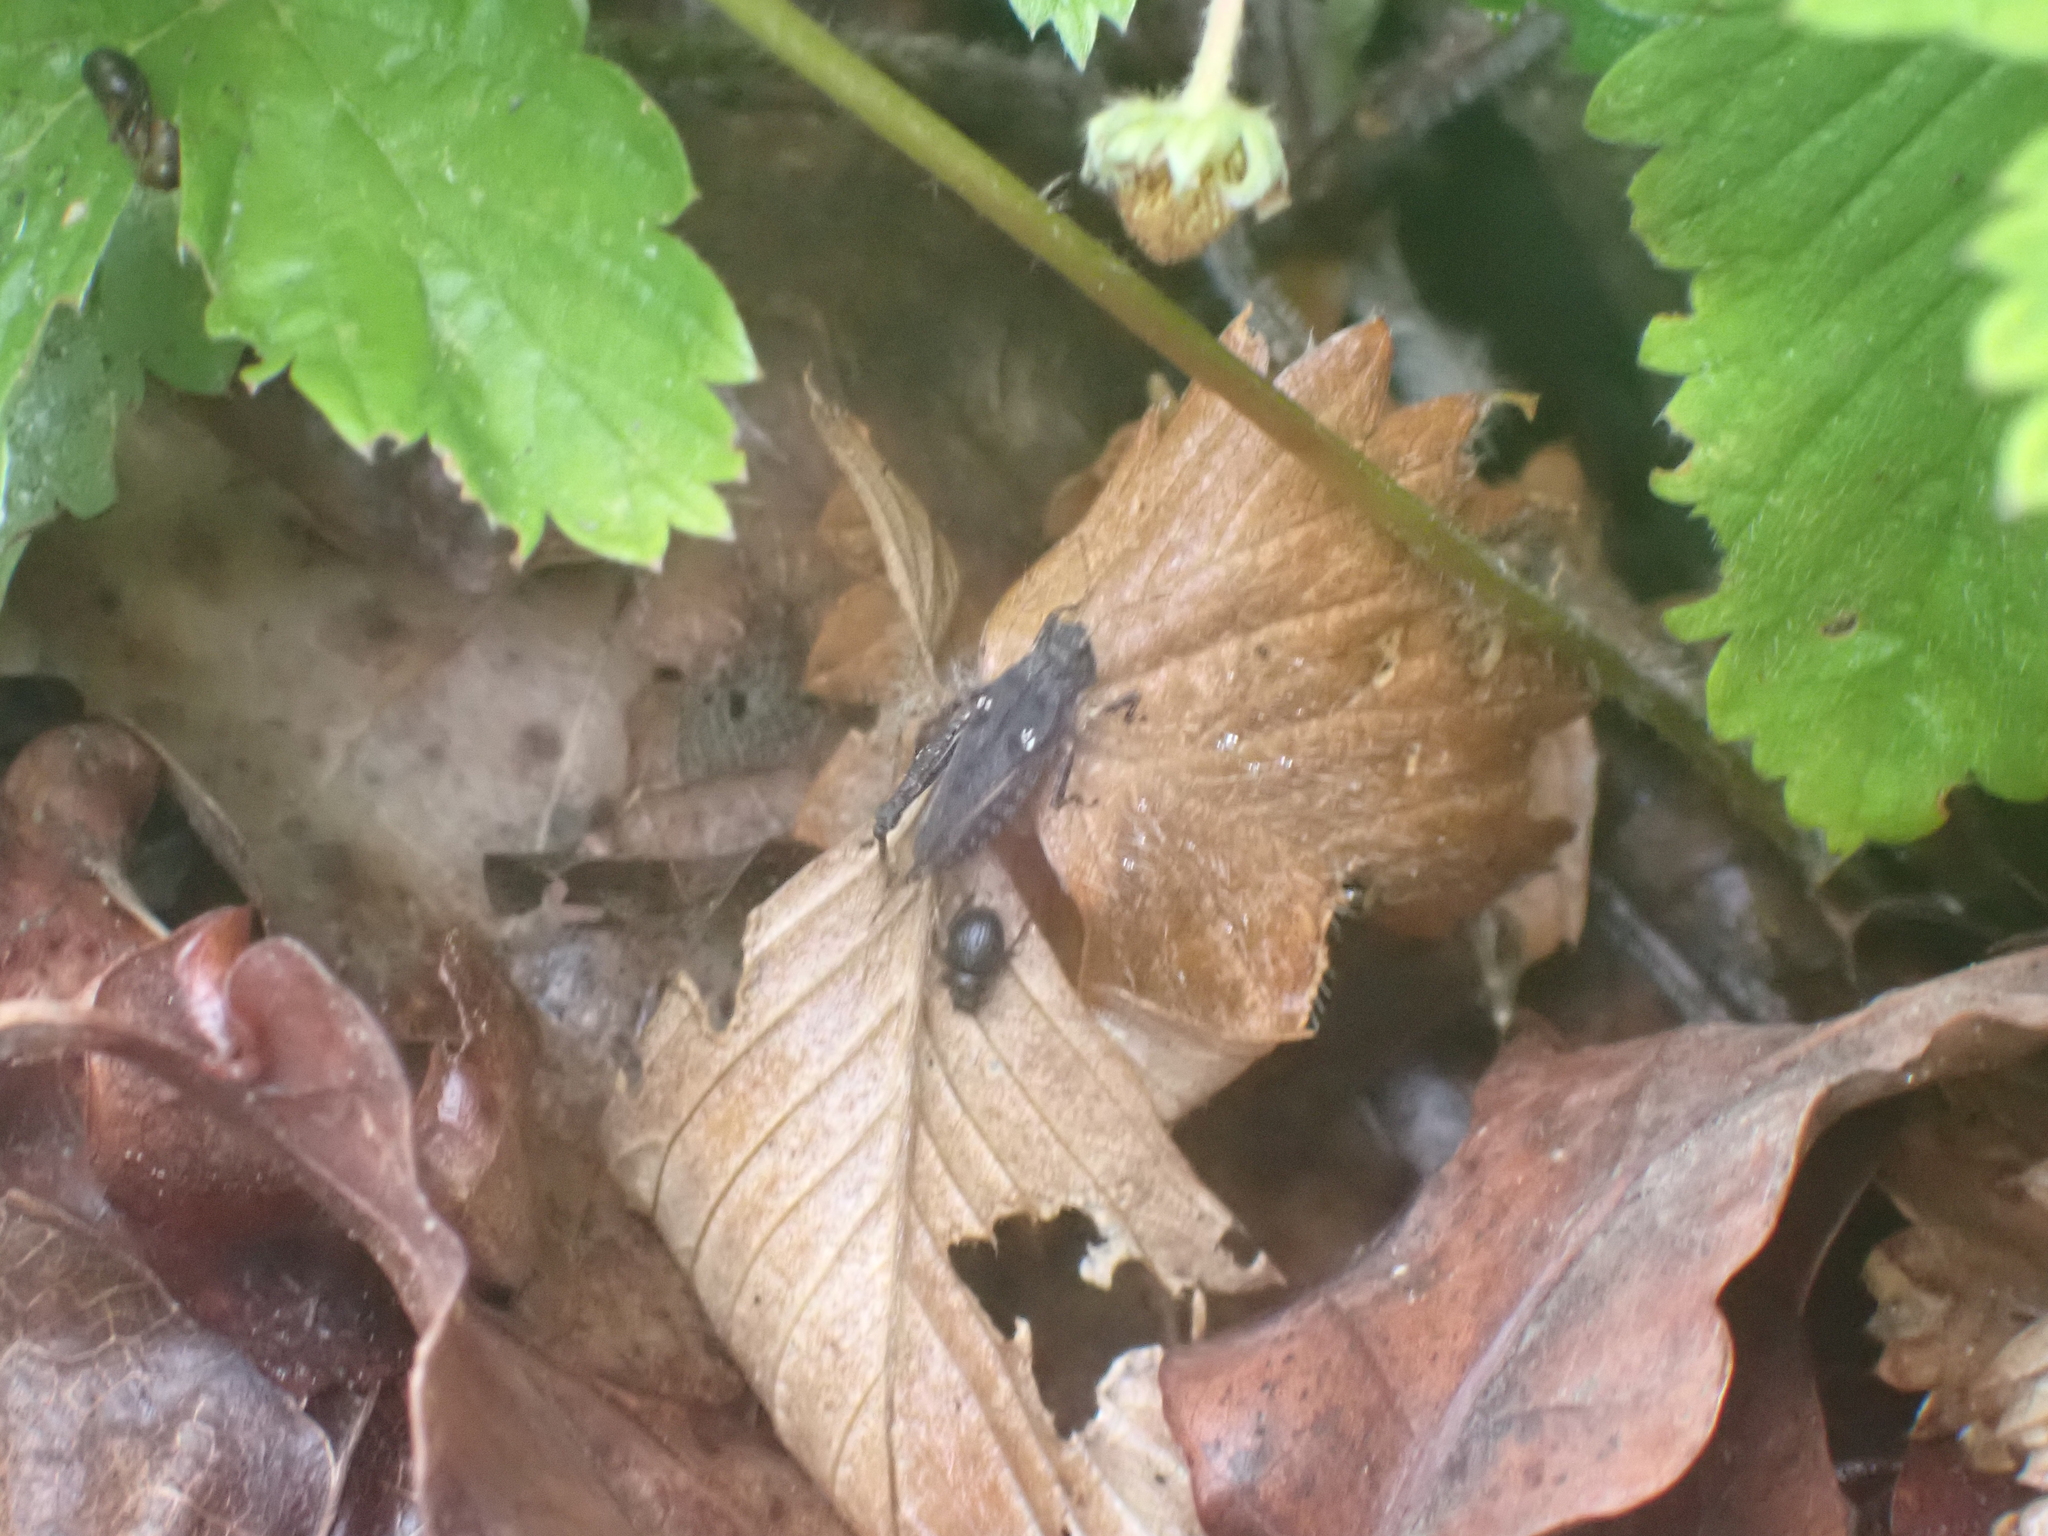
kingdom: Animalia
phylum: Arthropoda
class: Insecta
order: Orthoptera
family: Tetrigidae
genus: Tetrix
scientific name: Tetrix tenuicornis
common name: Long-horned groundhopper
